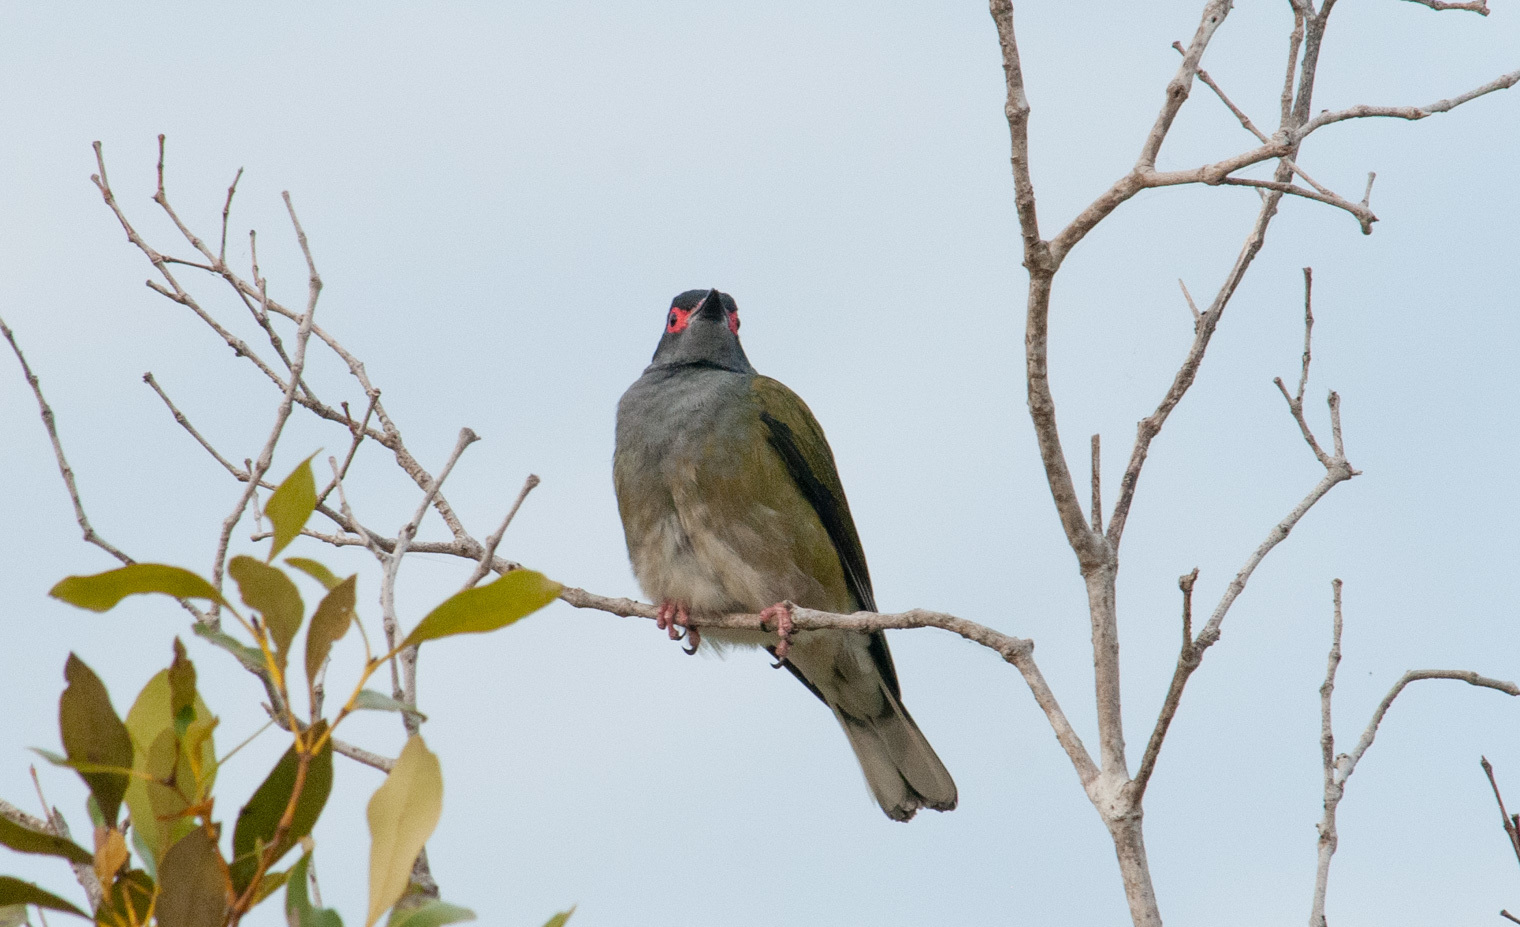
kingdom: Animalia
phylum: Chordata
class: Aves
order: Passeriformes
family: Oriolidae
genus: Sphecotheres
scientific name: Sphecotheres vieilloti
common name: Australasian figbird
